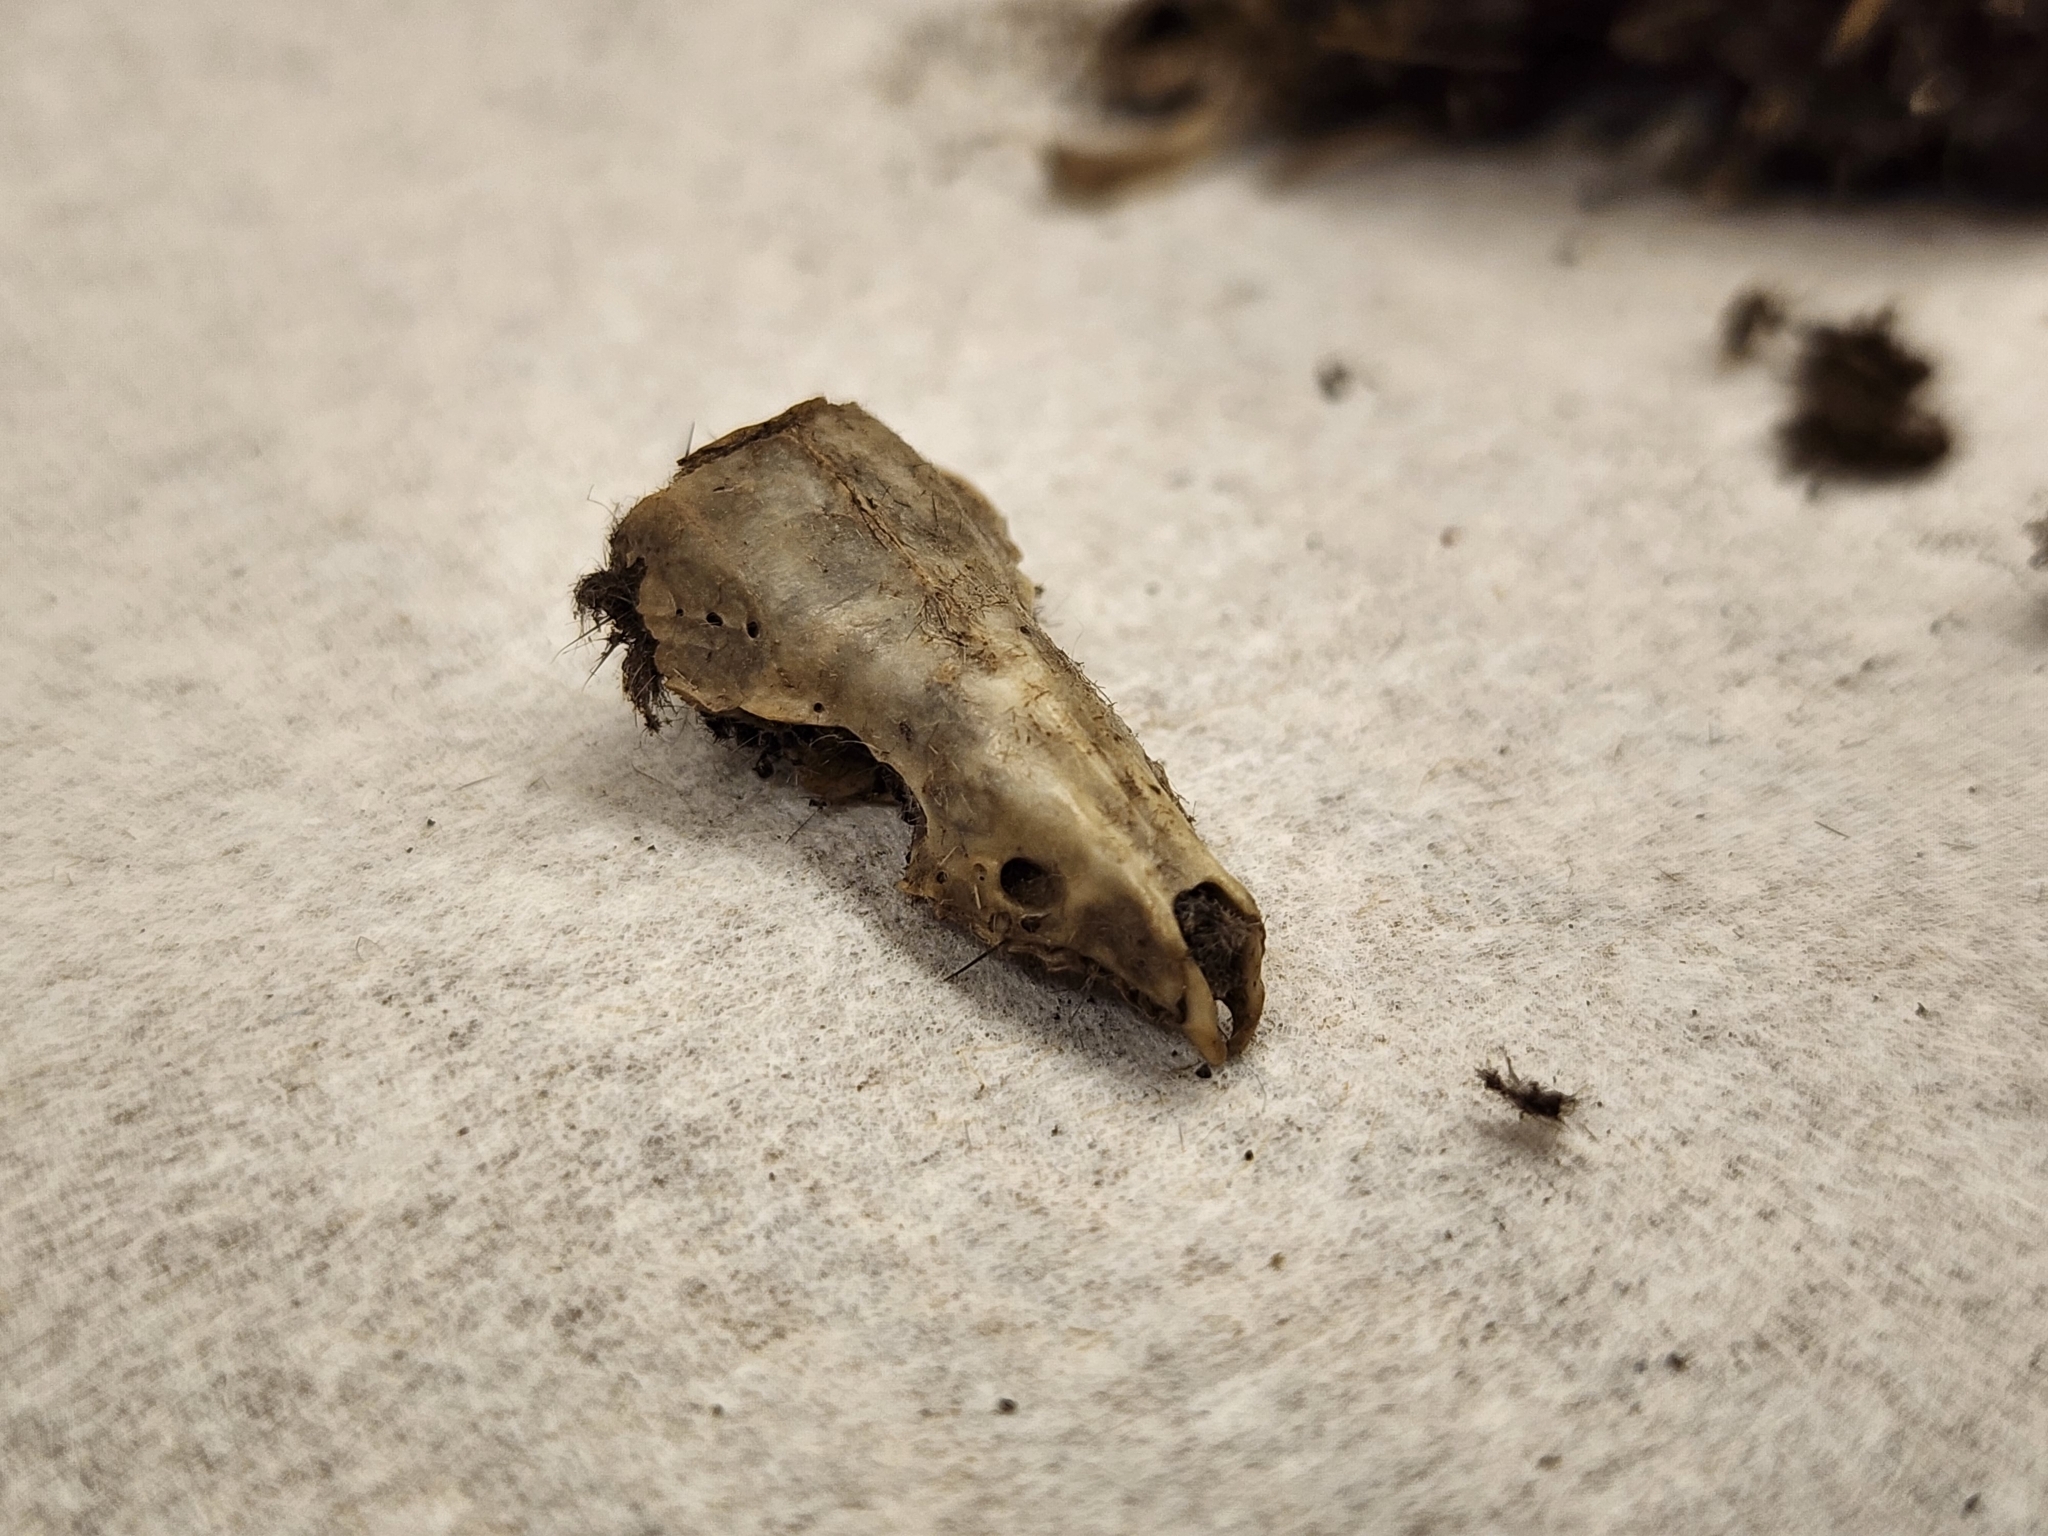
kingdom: Animalia
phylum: Chordata
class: Mammalia
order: Soricomorpha
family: Soricidae
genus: Blarina
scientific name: Blarina brevicauda
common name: Northern short-tailed shrew
